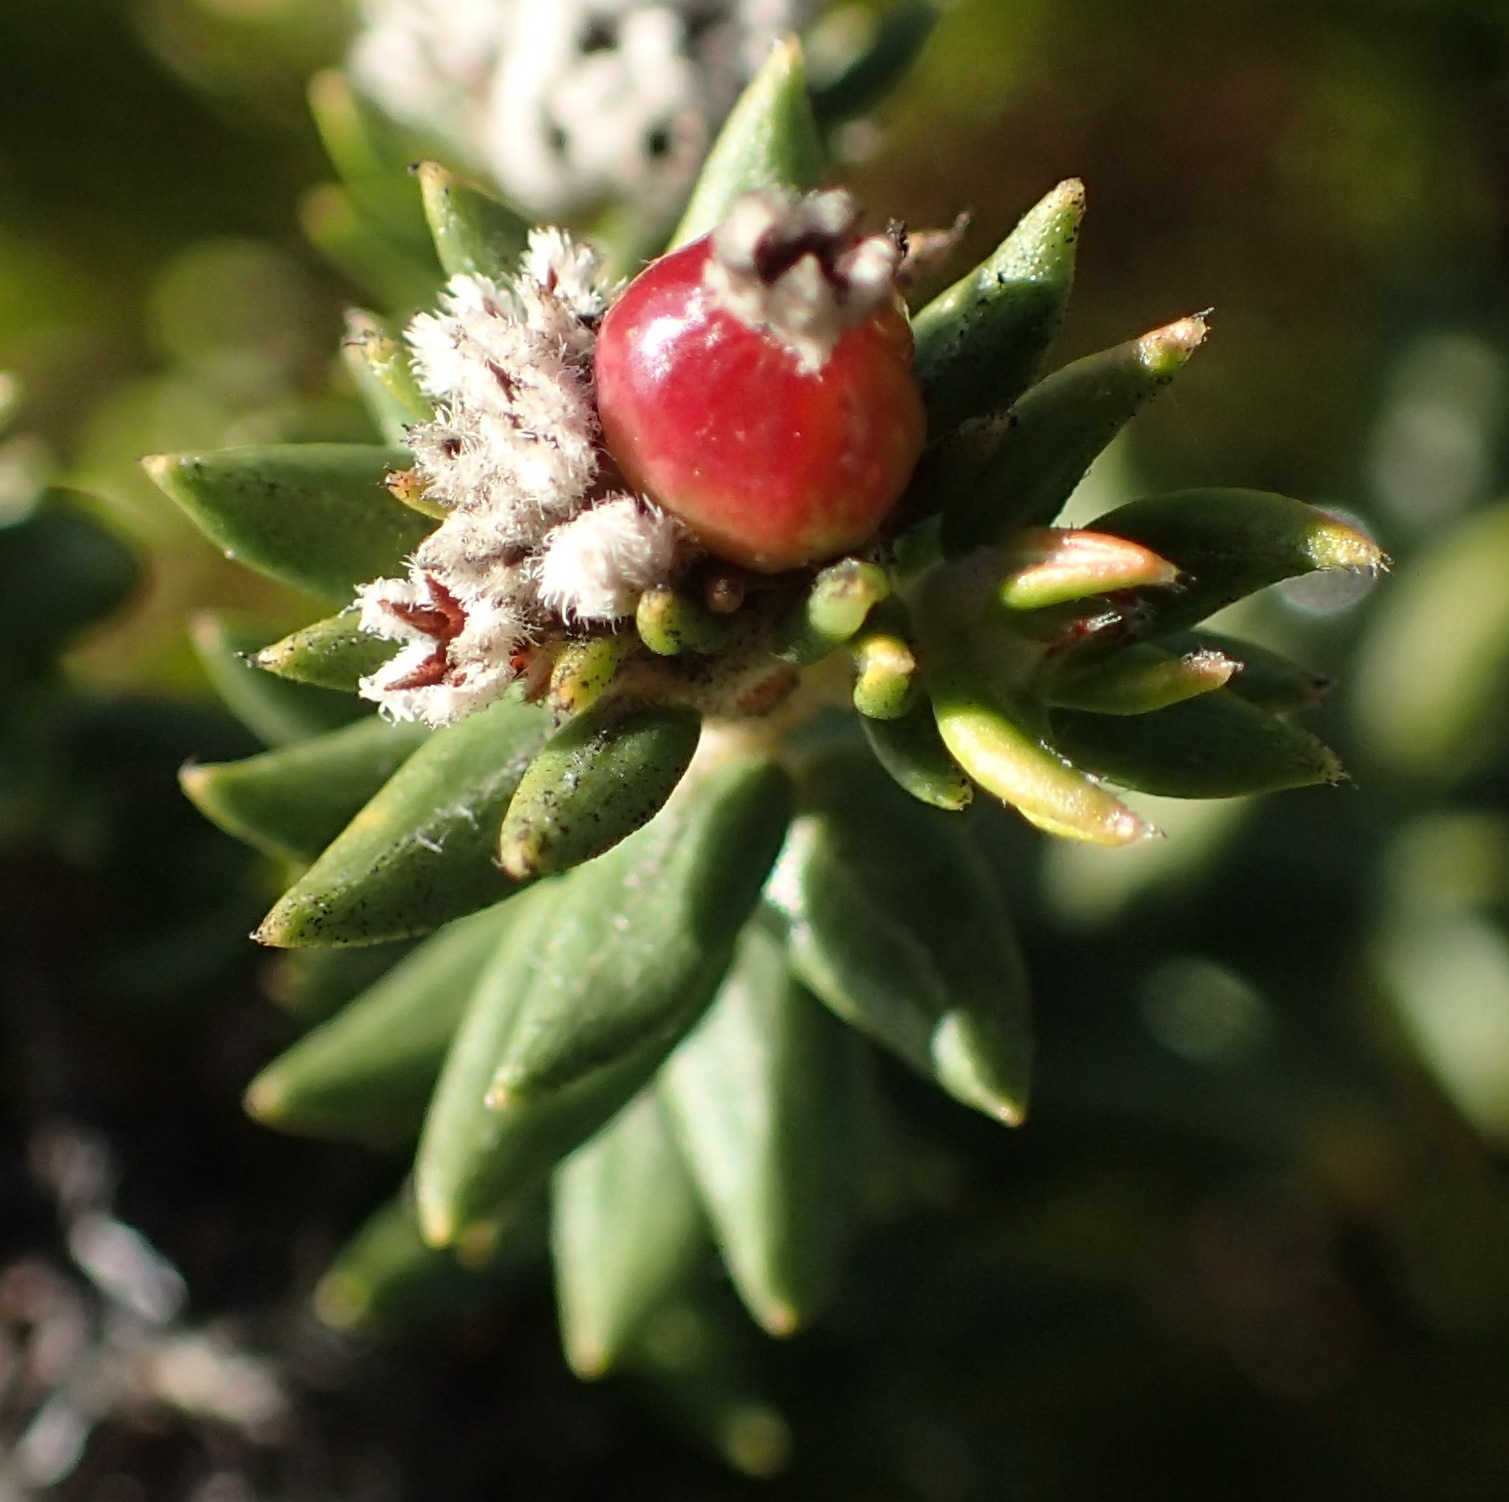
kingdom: Plantae
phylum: Tracheophyta
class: Magnoliopsida
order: Rosales
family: Rhamnaceae
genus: Phylica
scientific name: Phylica litoralis
